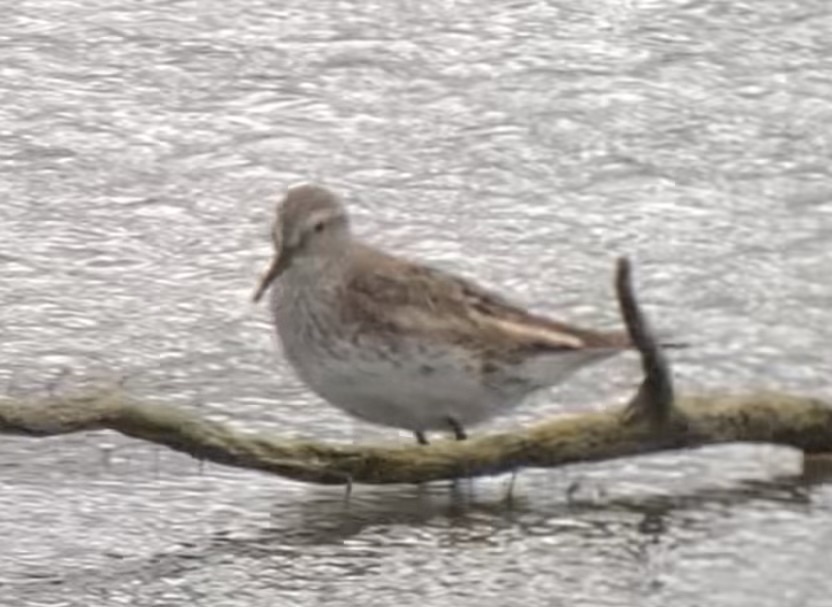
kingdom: Animalia
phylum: Chordata
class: Aves
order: Charadriiformes
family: Scolopacidae
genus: Calidris
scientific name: Calidris fuscicollis
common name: White-rumped sandpiper
